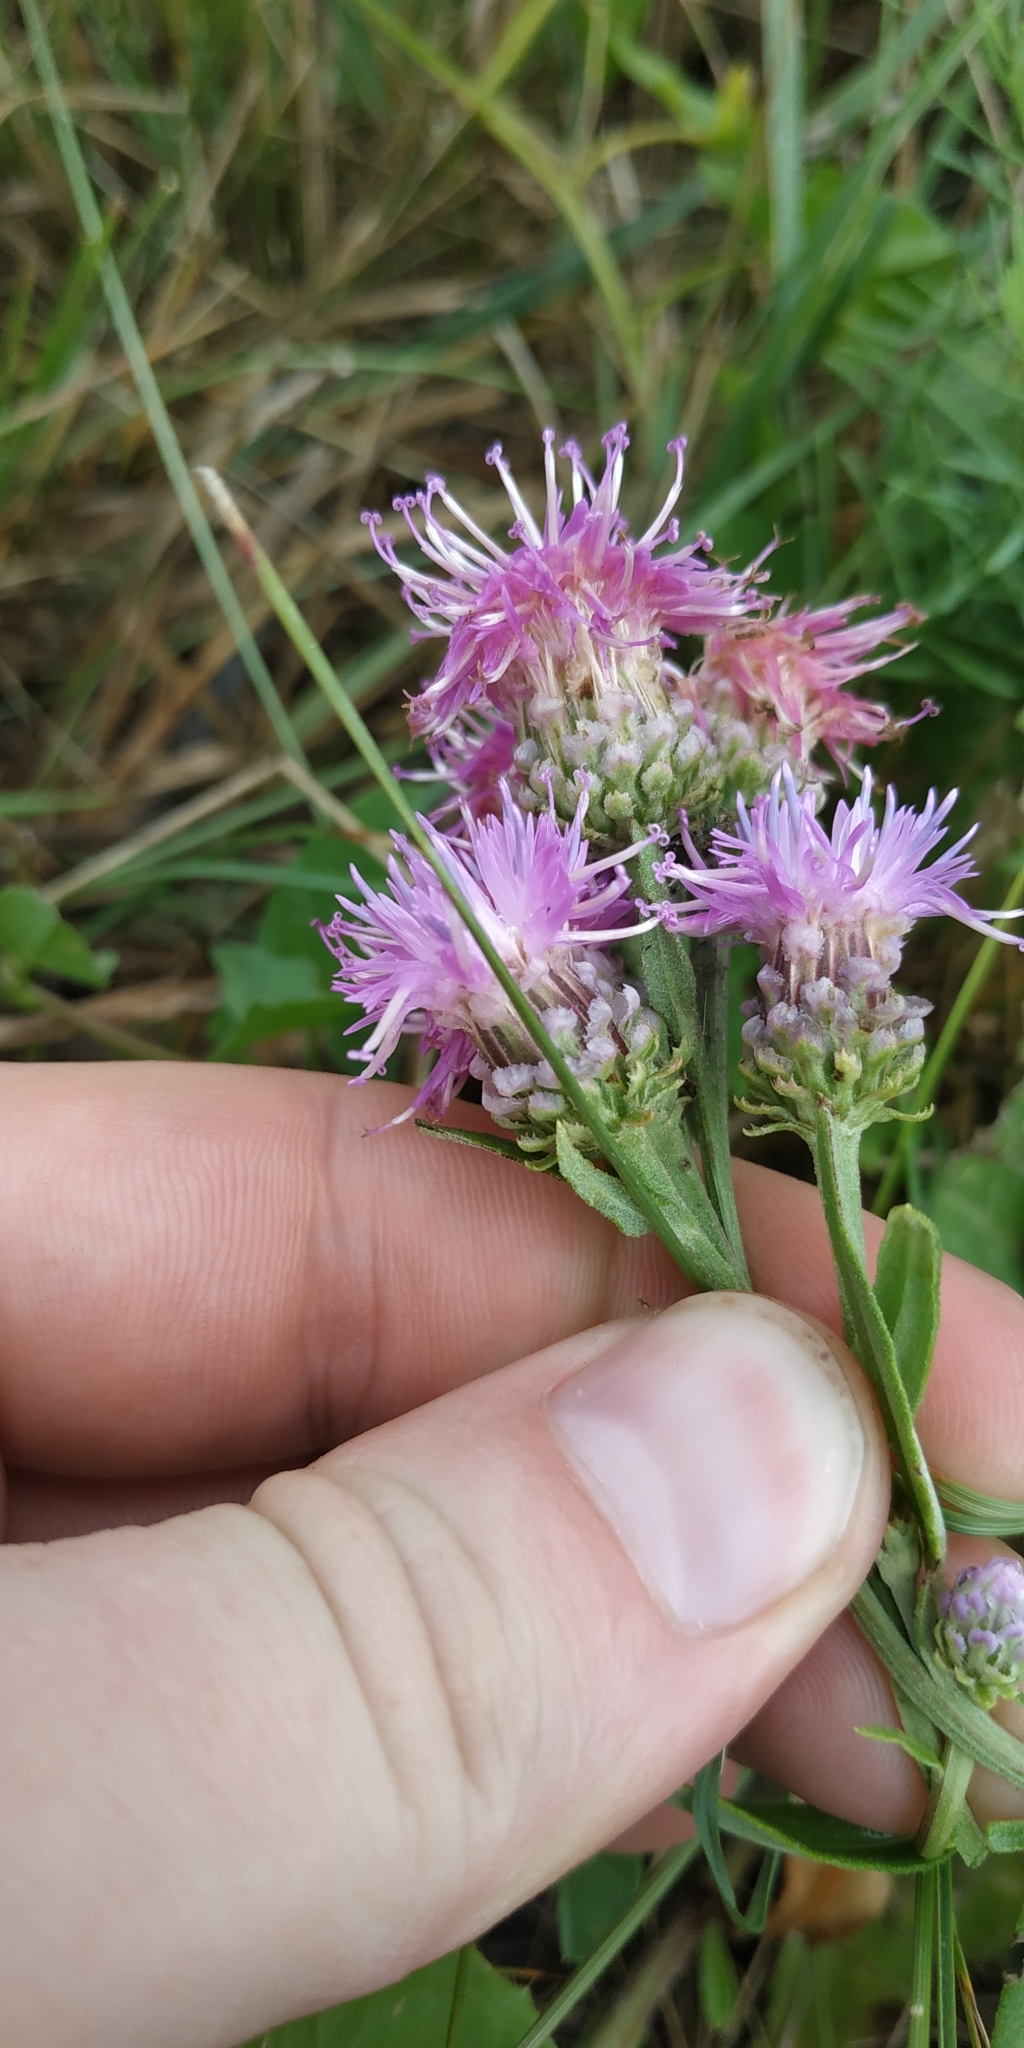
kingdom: Plantae
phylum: Tracheophyta
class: Magnoliopsida
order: Asterales
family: Asteraceae
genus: Saussurea
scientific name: Saussurea amara
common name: Alberta sawwort
